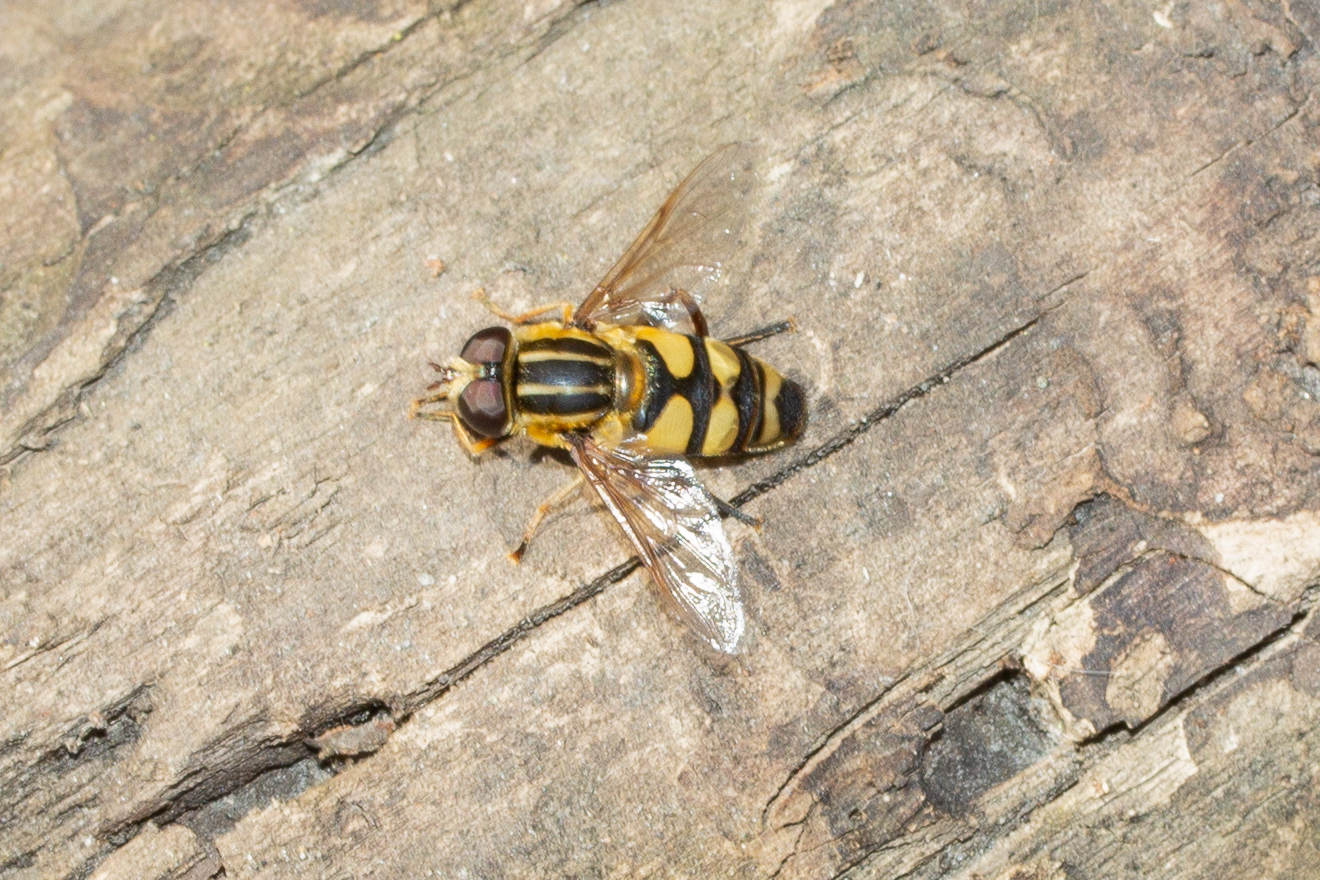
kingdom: Animalia
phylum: Arthropoda
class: Insecta
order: Diptera
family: Syrphidae
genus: Helophilus
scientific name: Helophilus fasciatus
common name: Narrow-headed marsh fly
